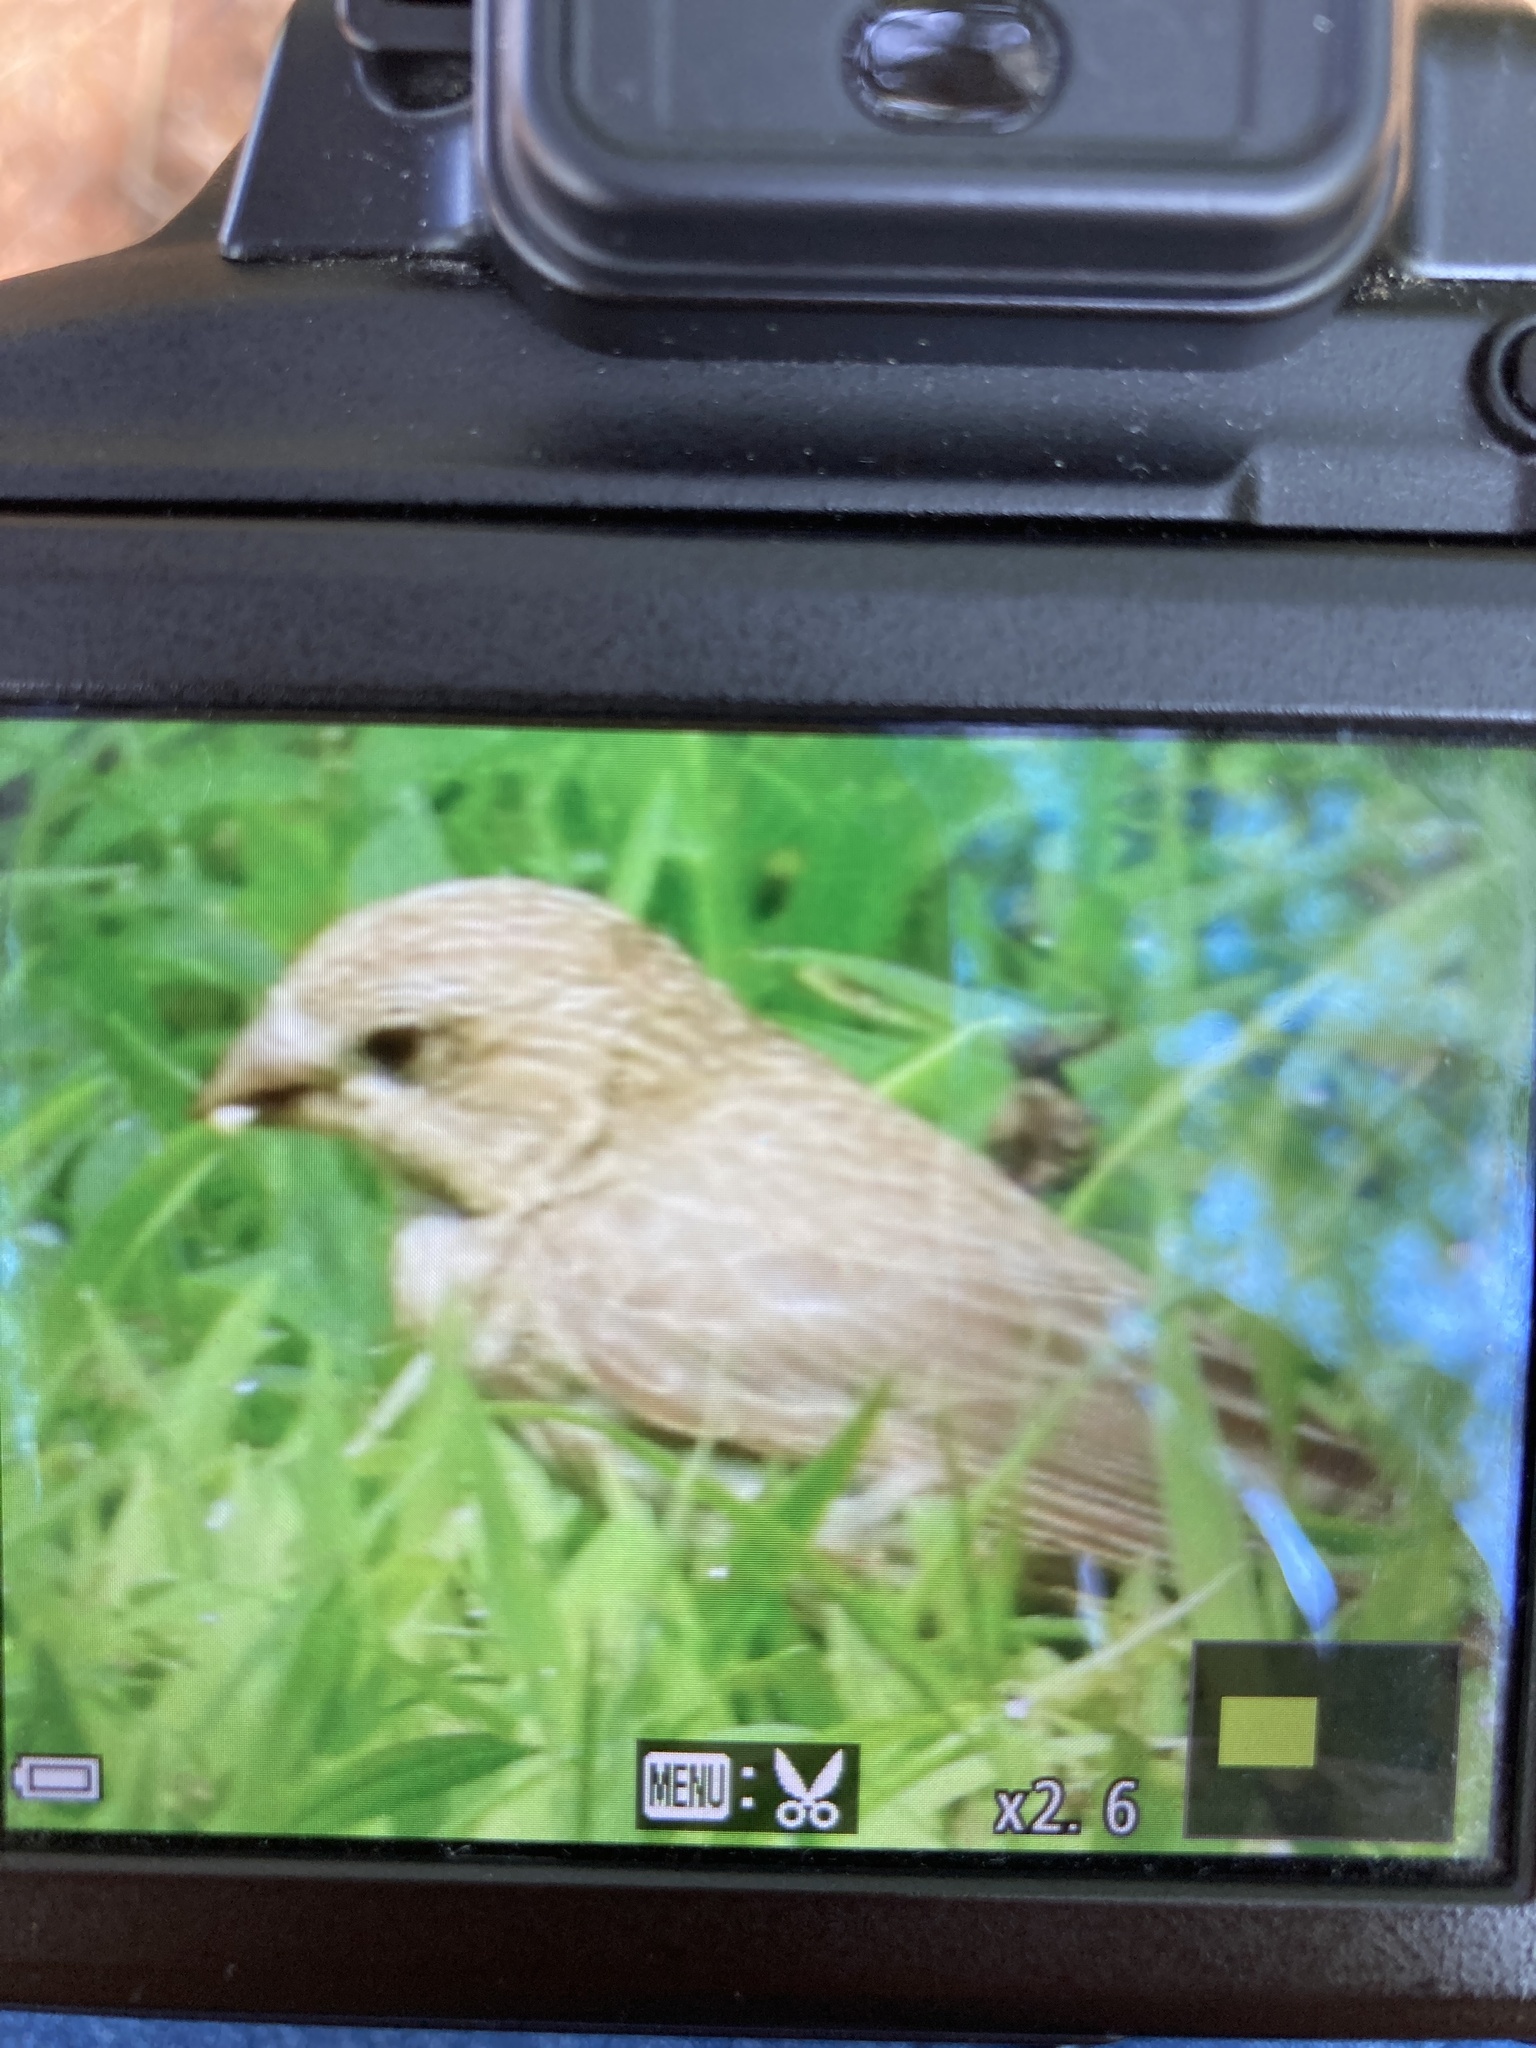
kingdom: Animalia
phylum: Chordata
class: Aves
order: Passeriformes
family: Fringillidae
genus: Haemorhous
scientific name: Haemorhous mexicanus
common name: House finch
